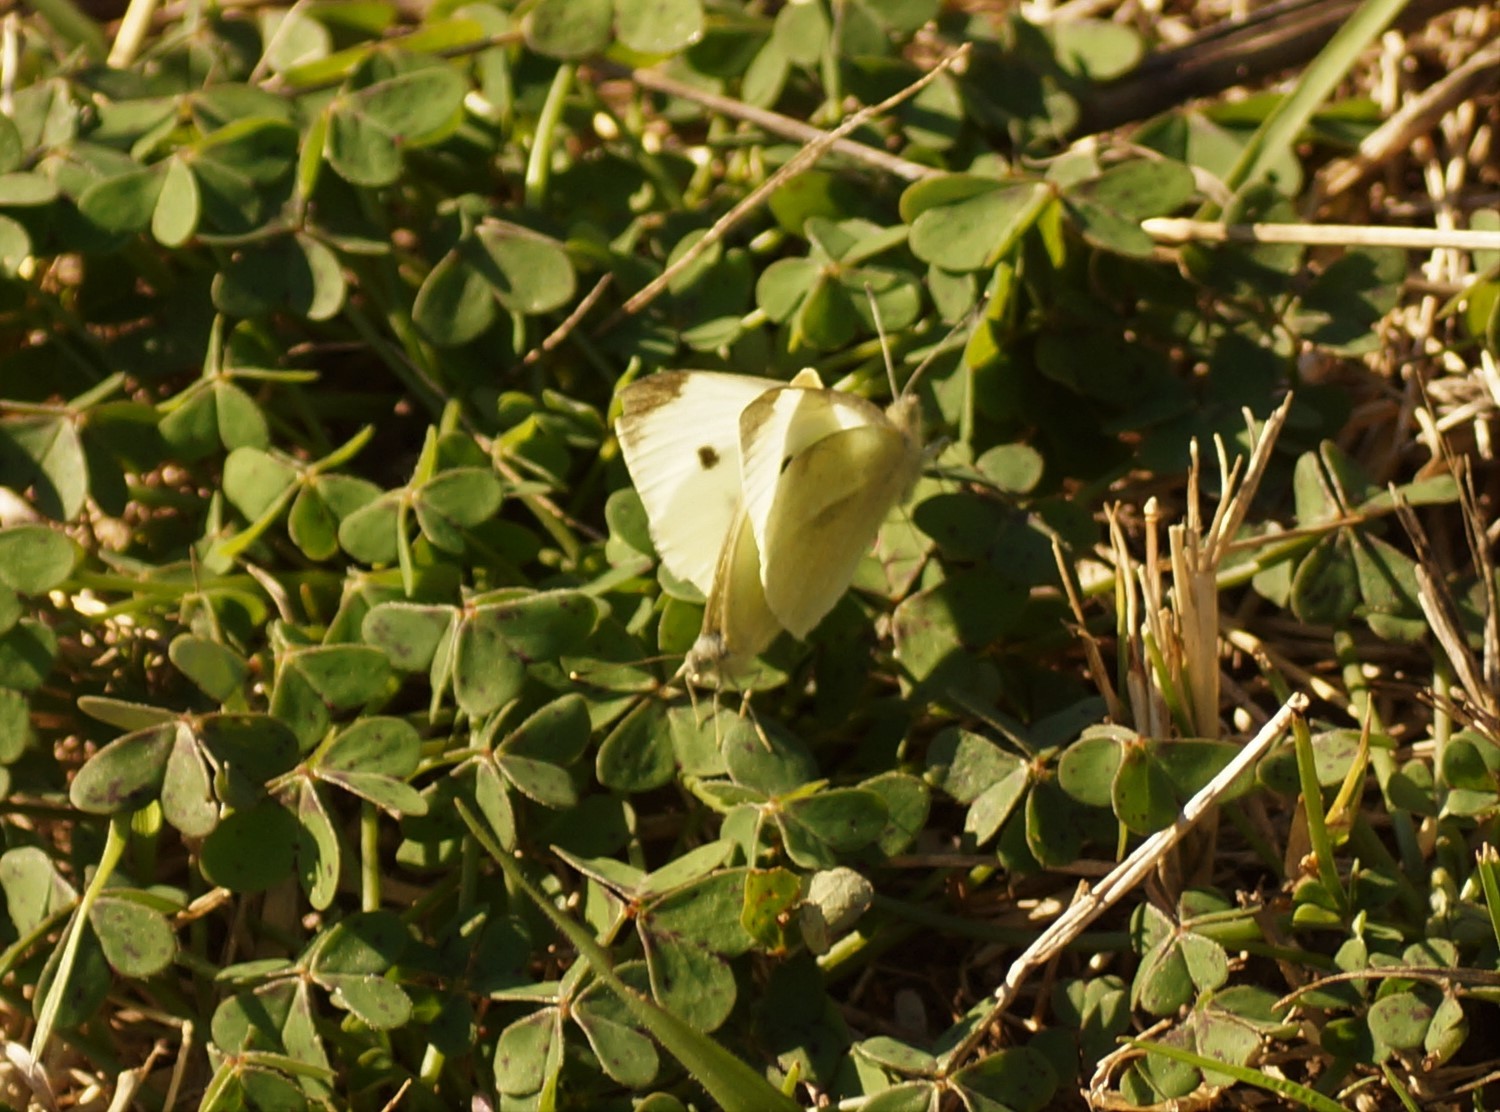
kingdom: Animalia
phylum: Arthropoda
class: Insecta
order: Lepidoptera
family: Pieridae
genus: Pieris
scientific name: Pieris rapae
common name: Small white
